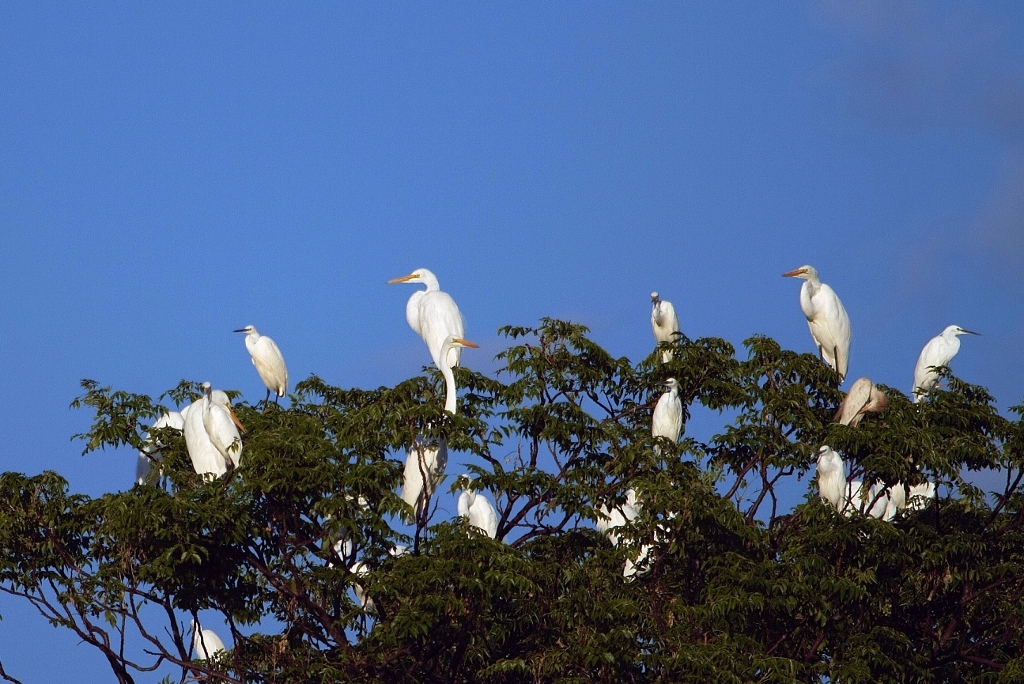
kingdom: Animalia
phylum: Chordata
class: Aves
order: Pelecaniformes
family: Ardeidae
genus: Ardea
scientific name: Ardea alba
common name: Great egret
